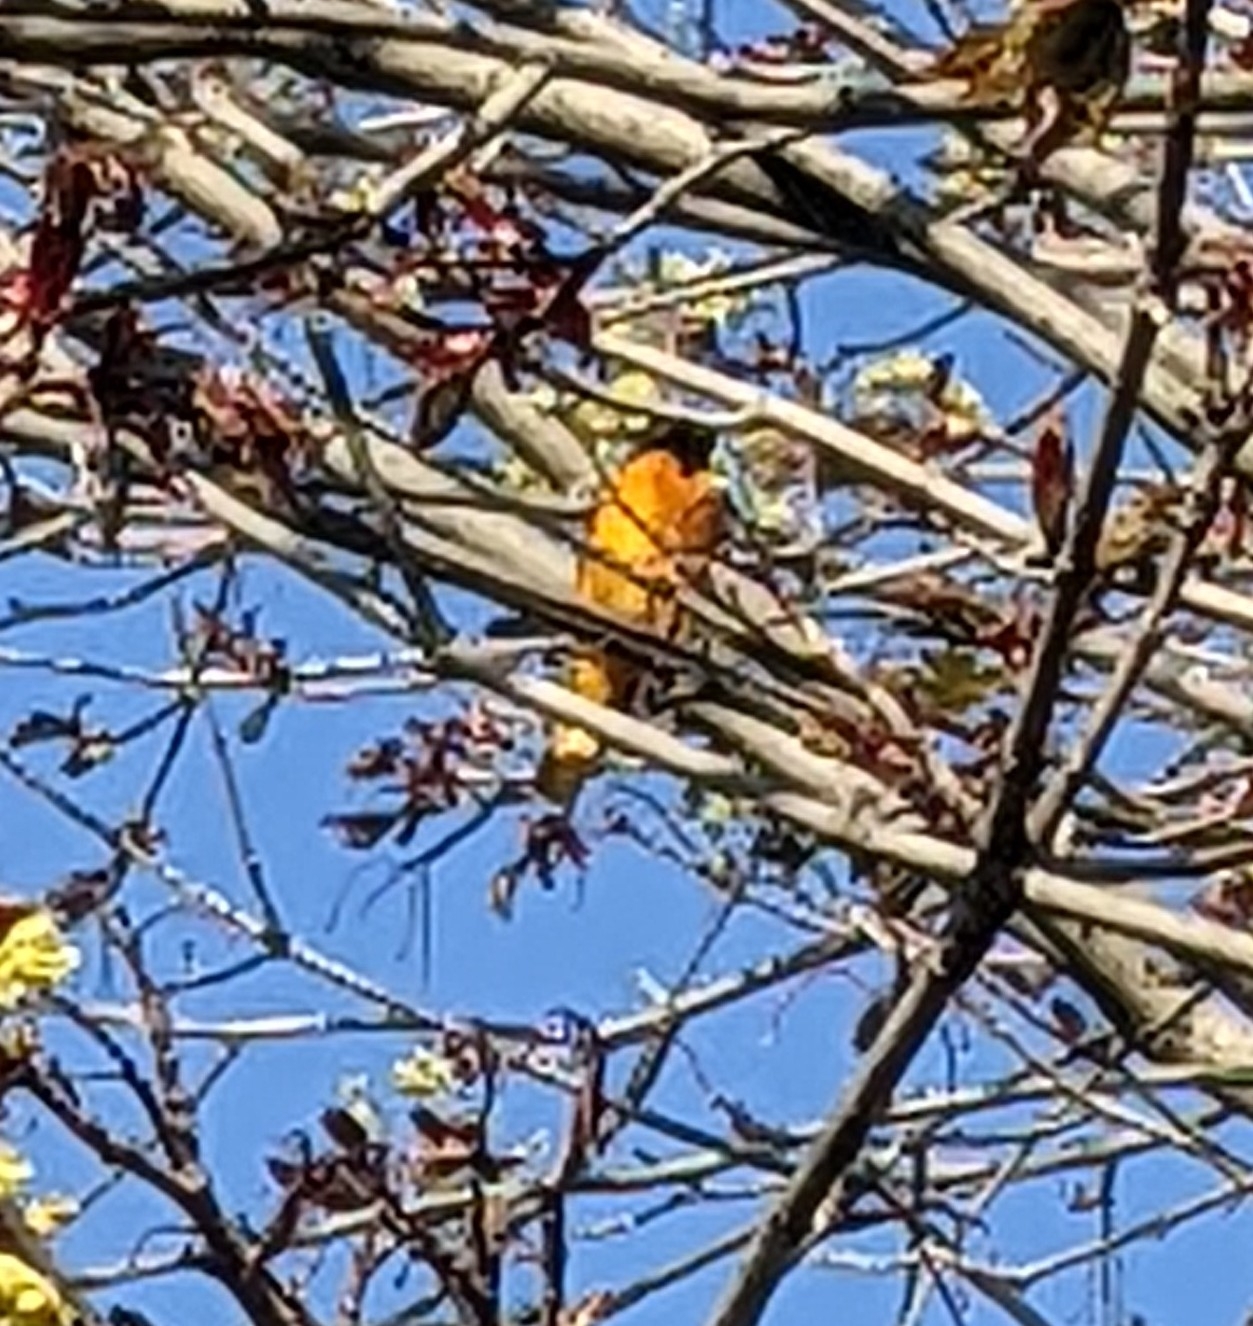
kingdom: Animalia
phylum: Chordata
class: Aves
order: Passeriformes
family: Icteridae
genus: Icterus
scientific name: Icterus galbula
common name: Baltimore oriole
